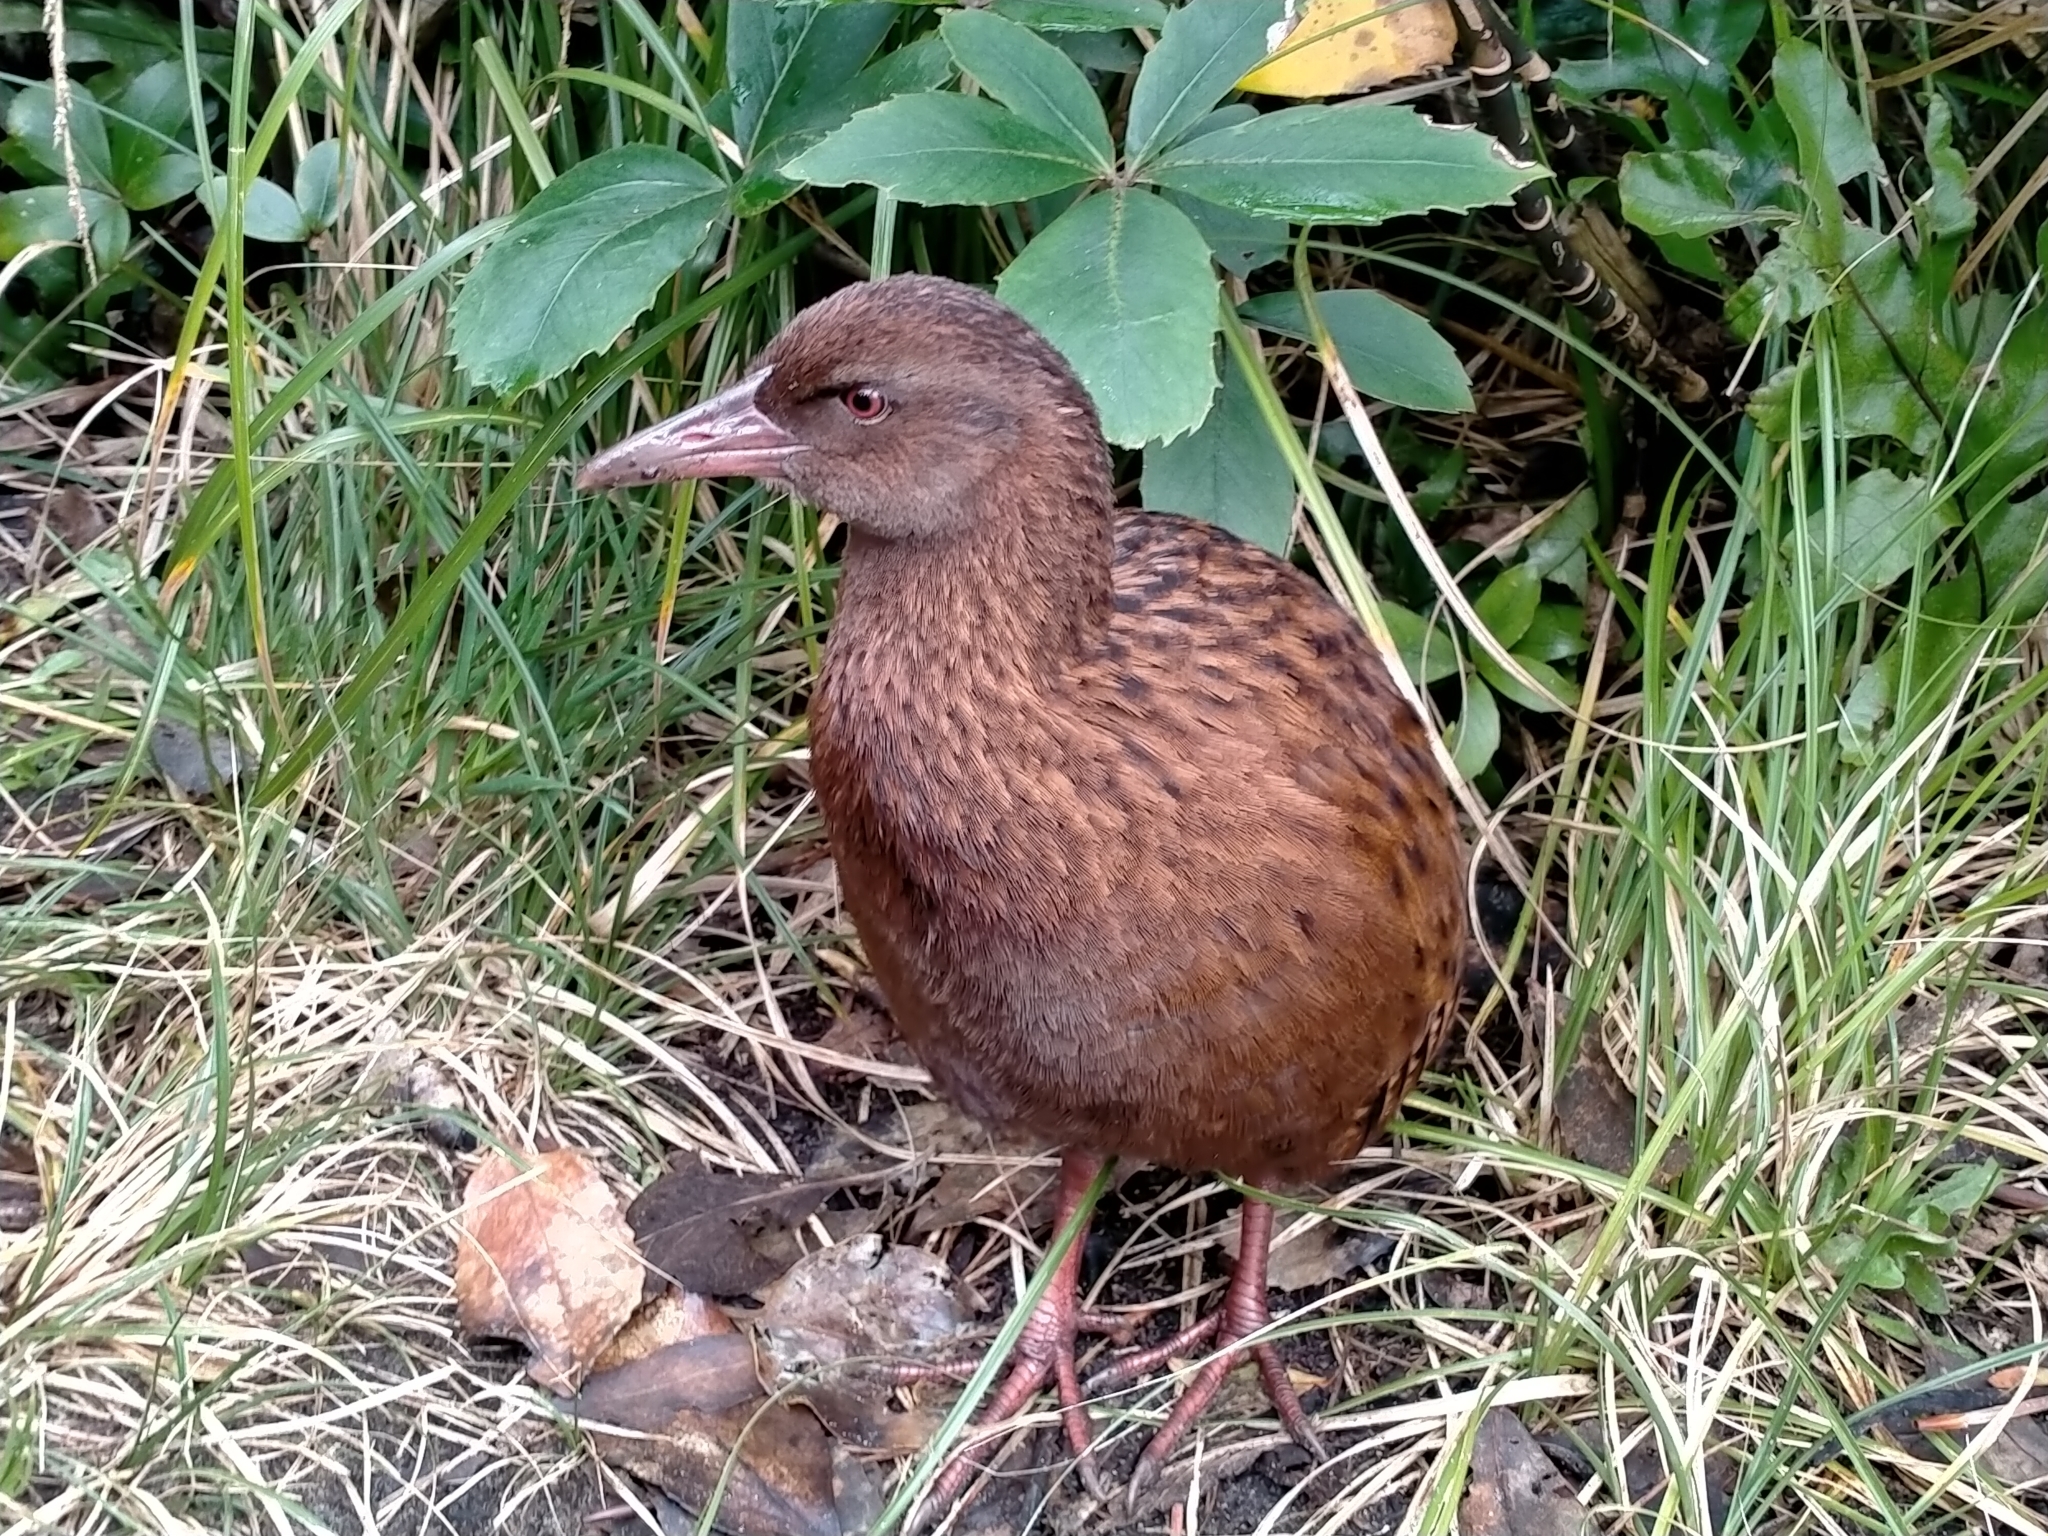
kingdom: Animalia
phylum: Chordata
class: Aves
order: Gruiformes
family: Rallidae
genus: Gallirallus
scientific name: Gallirallus australis
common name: Weka
